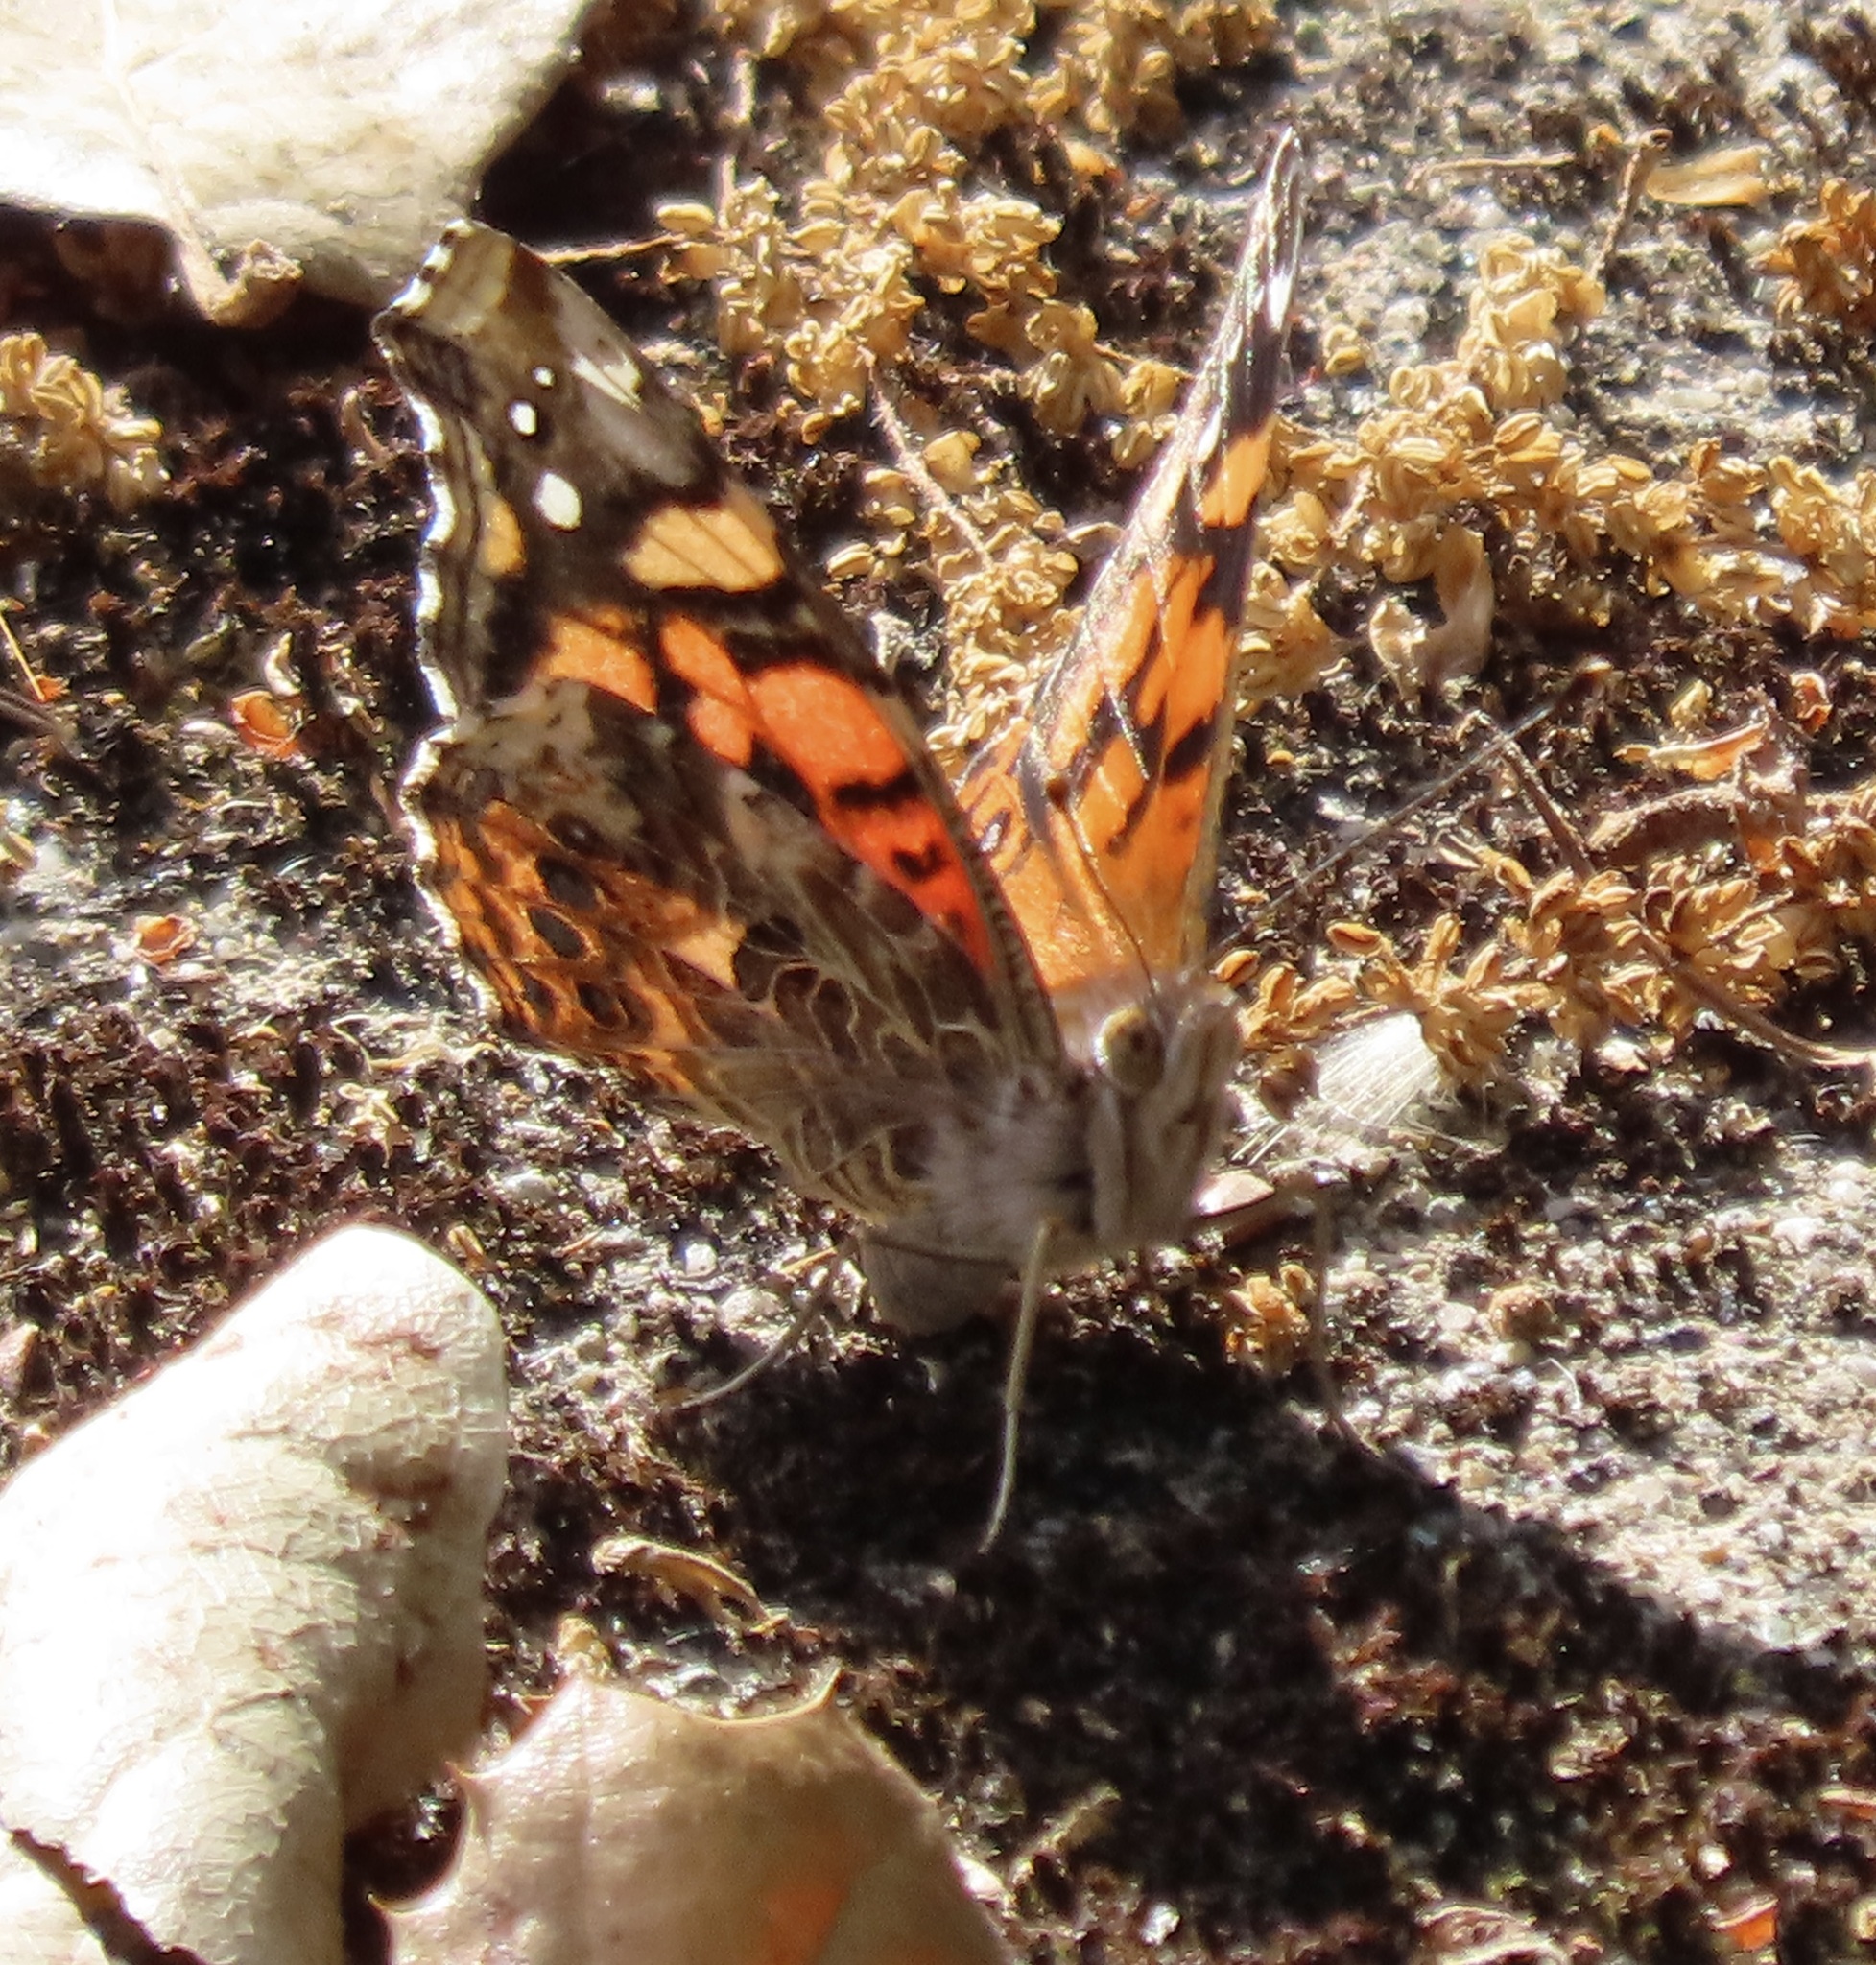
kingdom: Animalia
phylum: Arthropoda
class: Insecta
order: Lepidoptera
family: Nymphalidae
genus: Vanessa
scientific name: Vanessa annabella
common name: West coast lady
